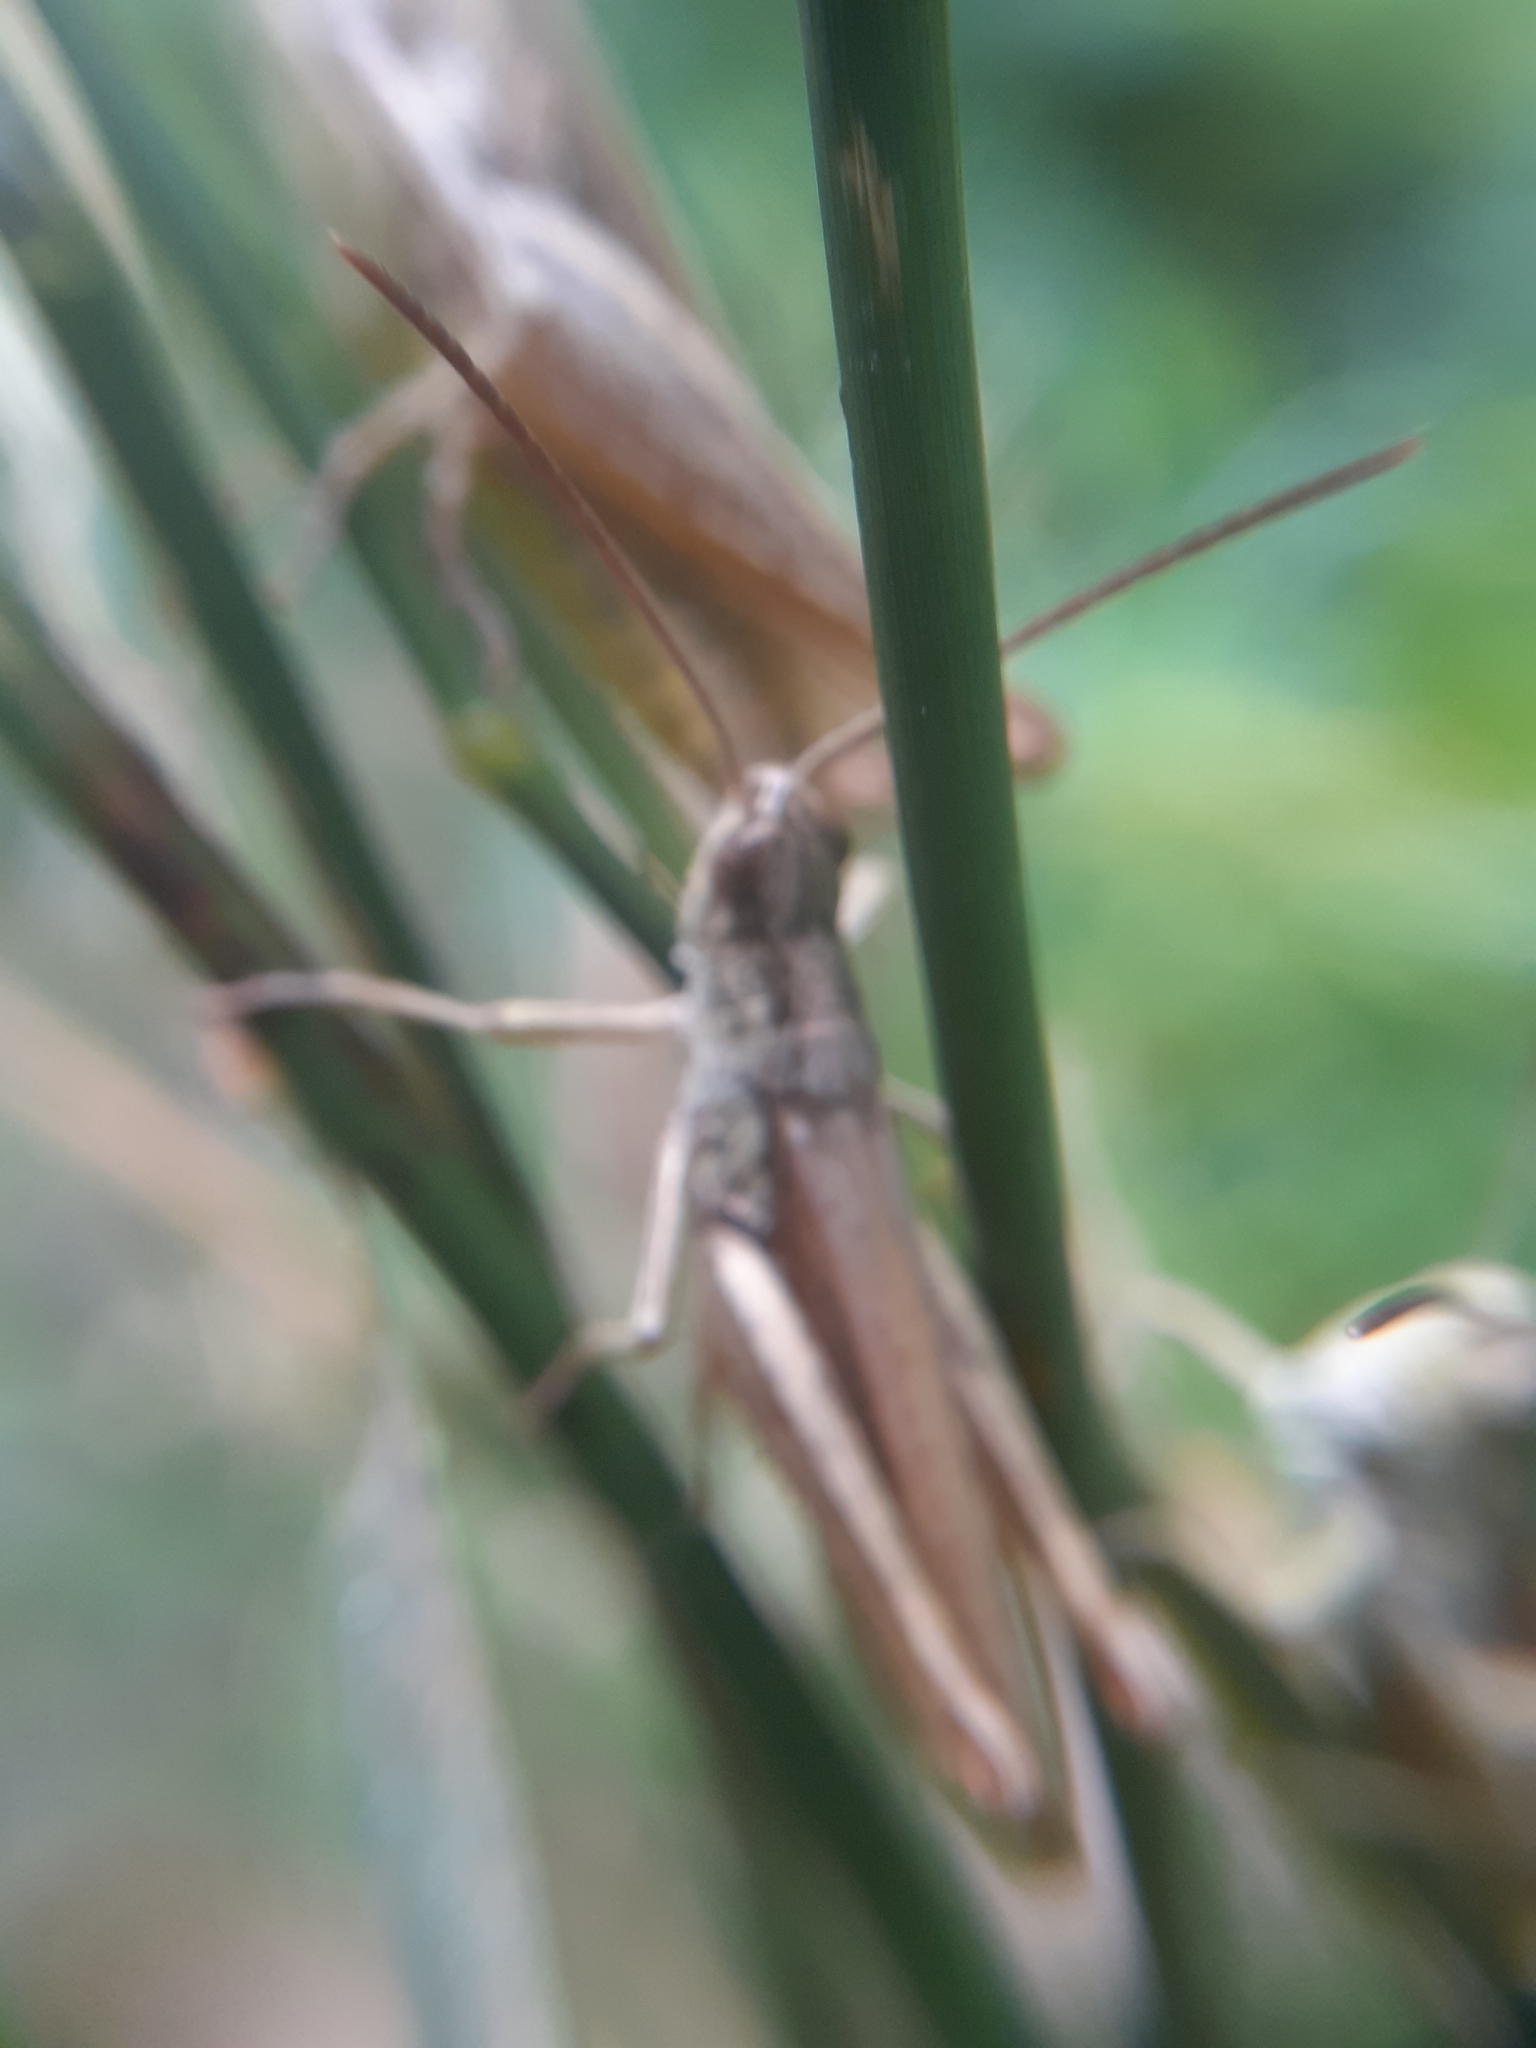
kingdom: Animalia
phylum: Arthropoda
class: Insecta
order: Orthoptera
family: Acrididae
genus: Chorthippus
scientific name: Chorthippus apricarius
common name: Upland field grasshopper
